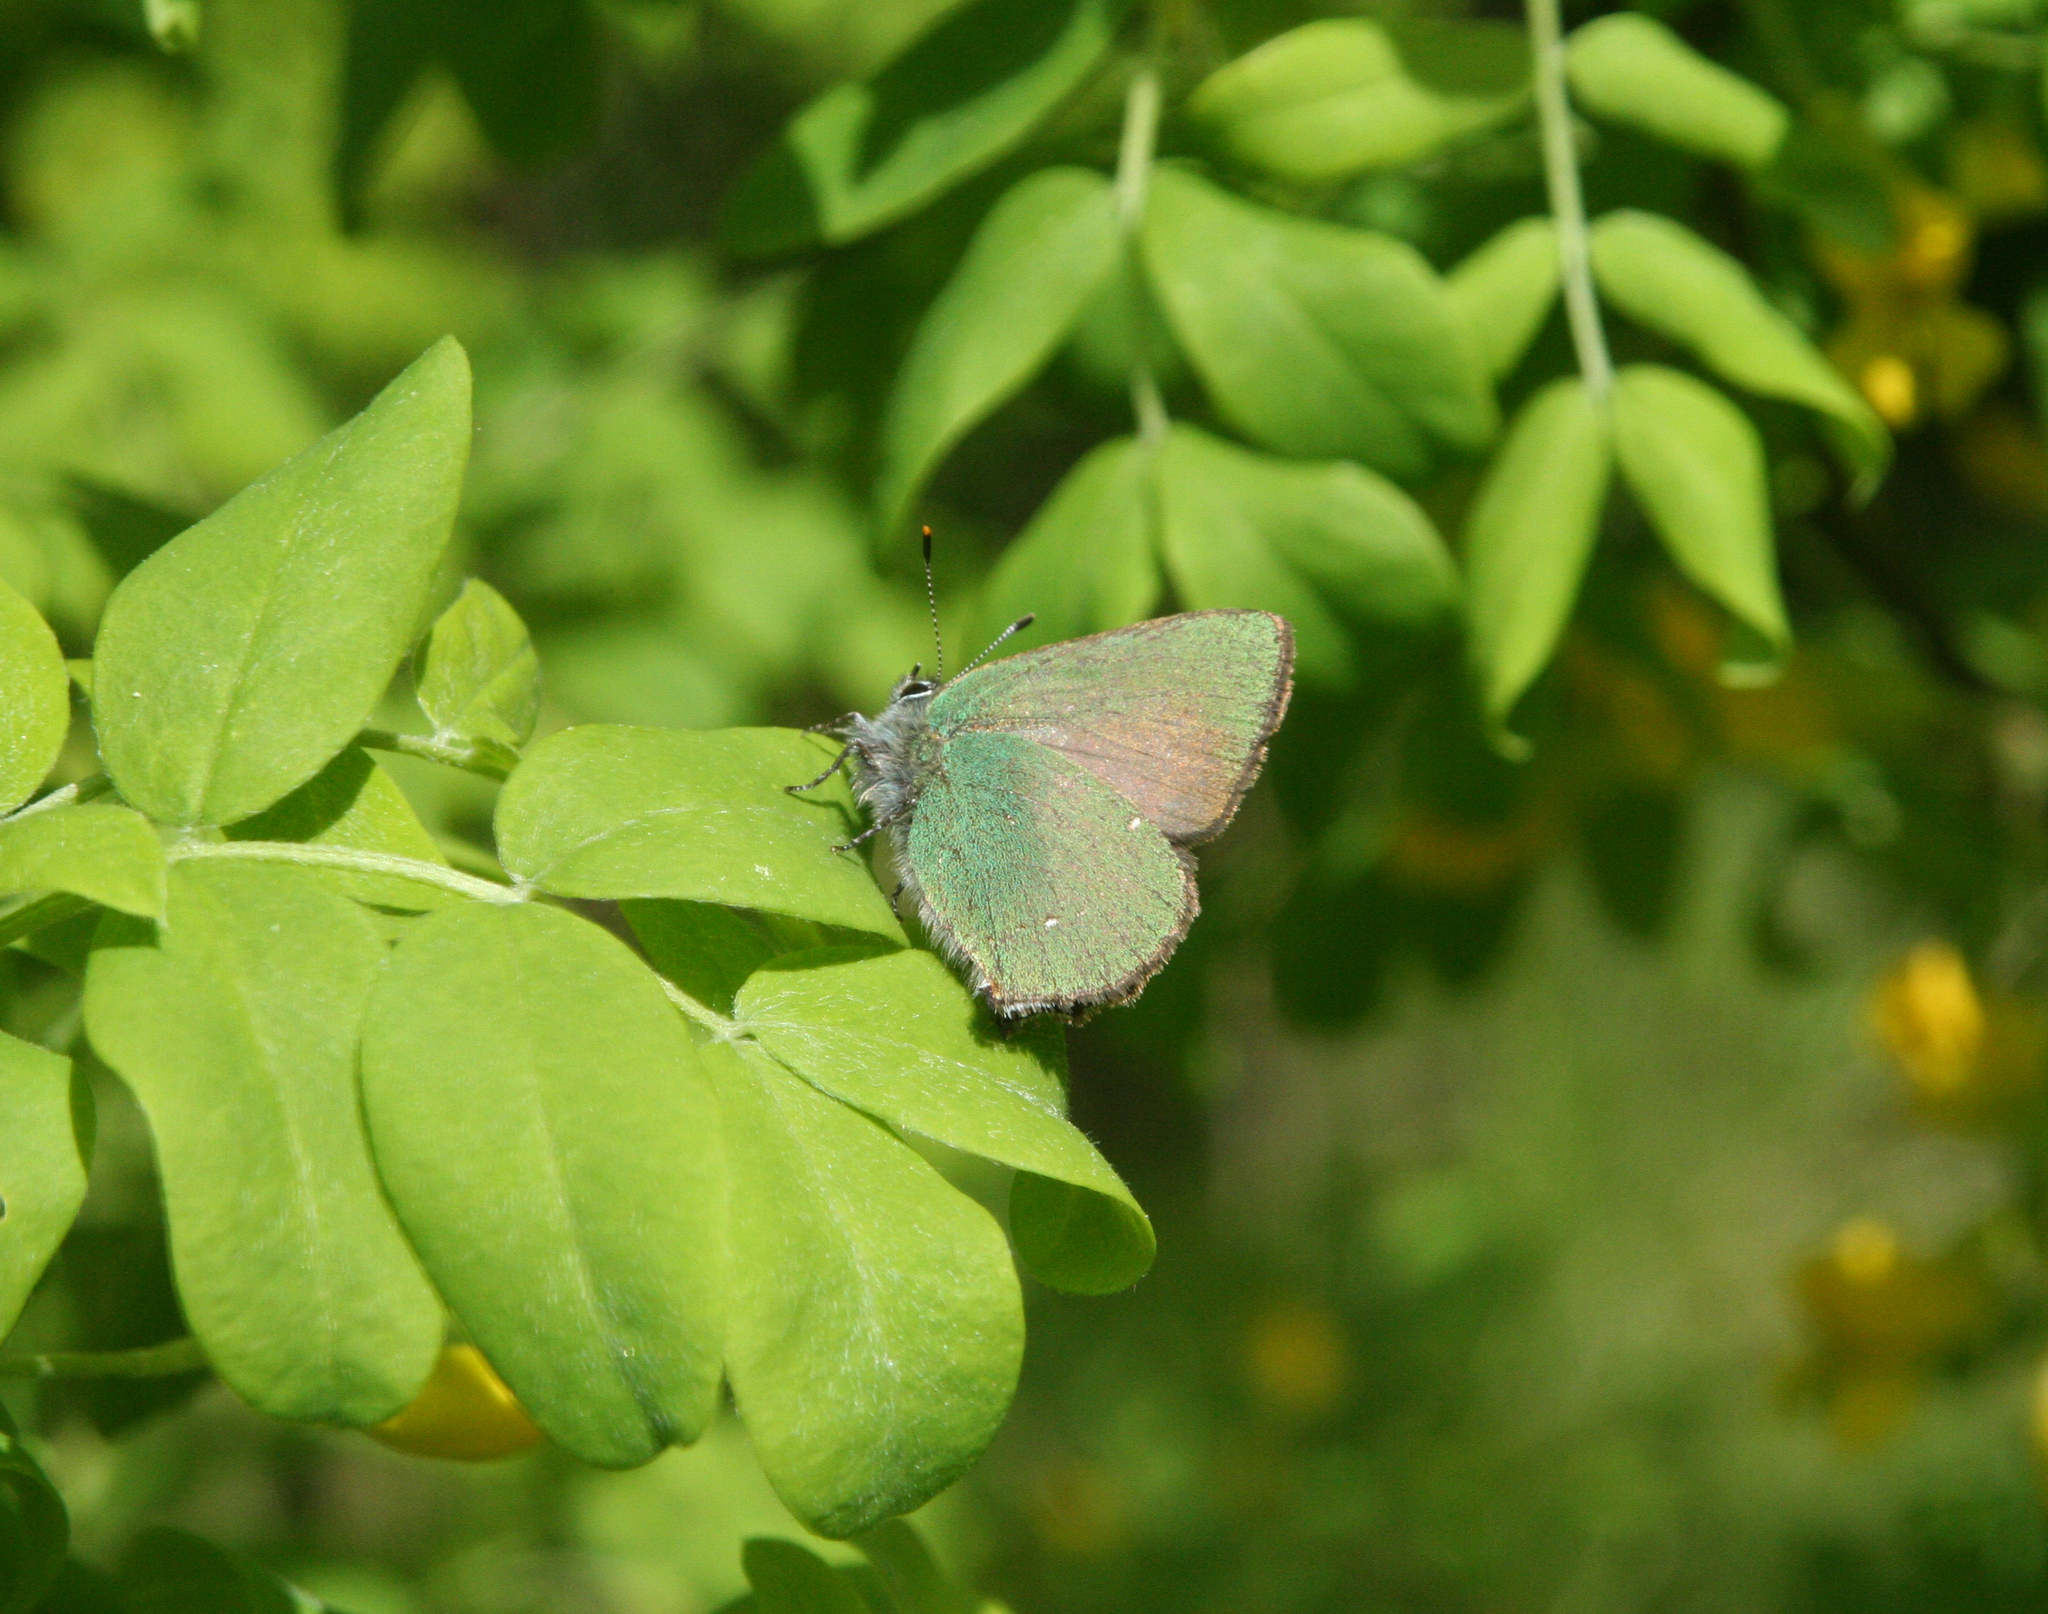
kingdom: Animalia
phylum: Arthropoda
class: Insecta
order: Lepidoptera
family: Lycaenidae
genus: Callophrys
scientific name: Callophrys rubi
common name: Green hairstreak
